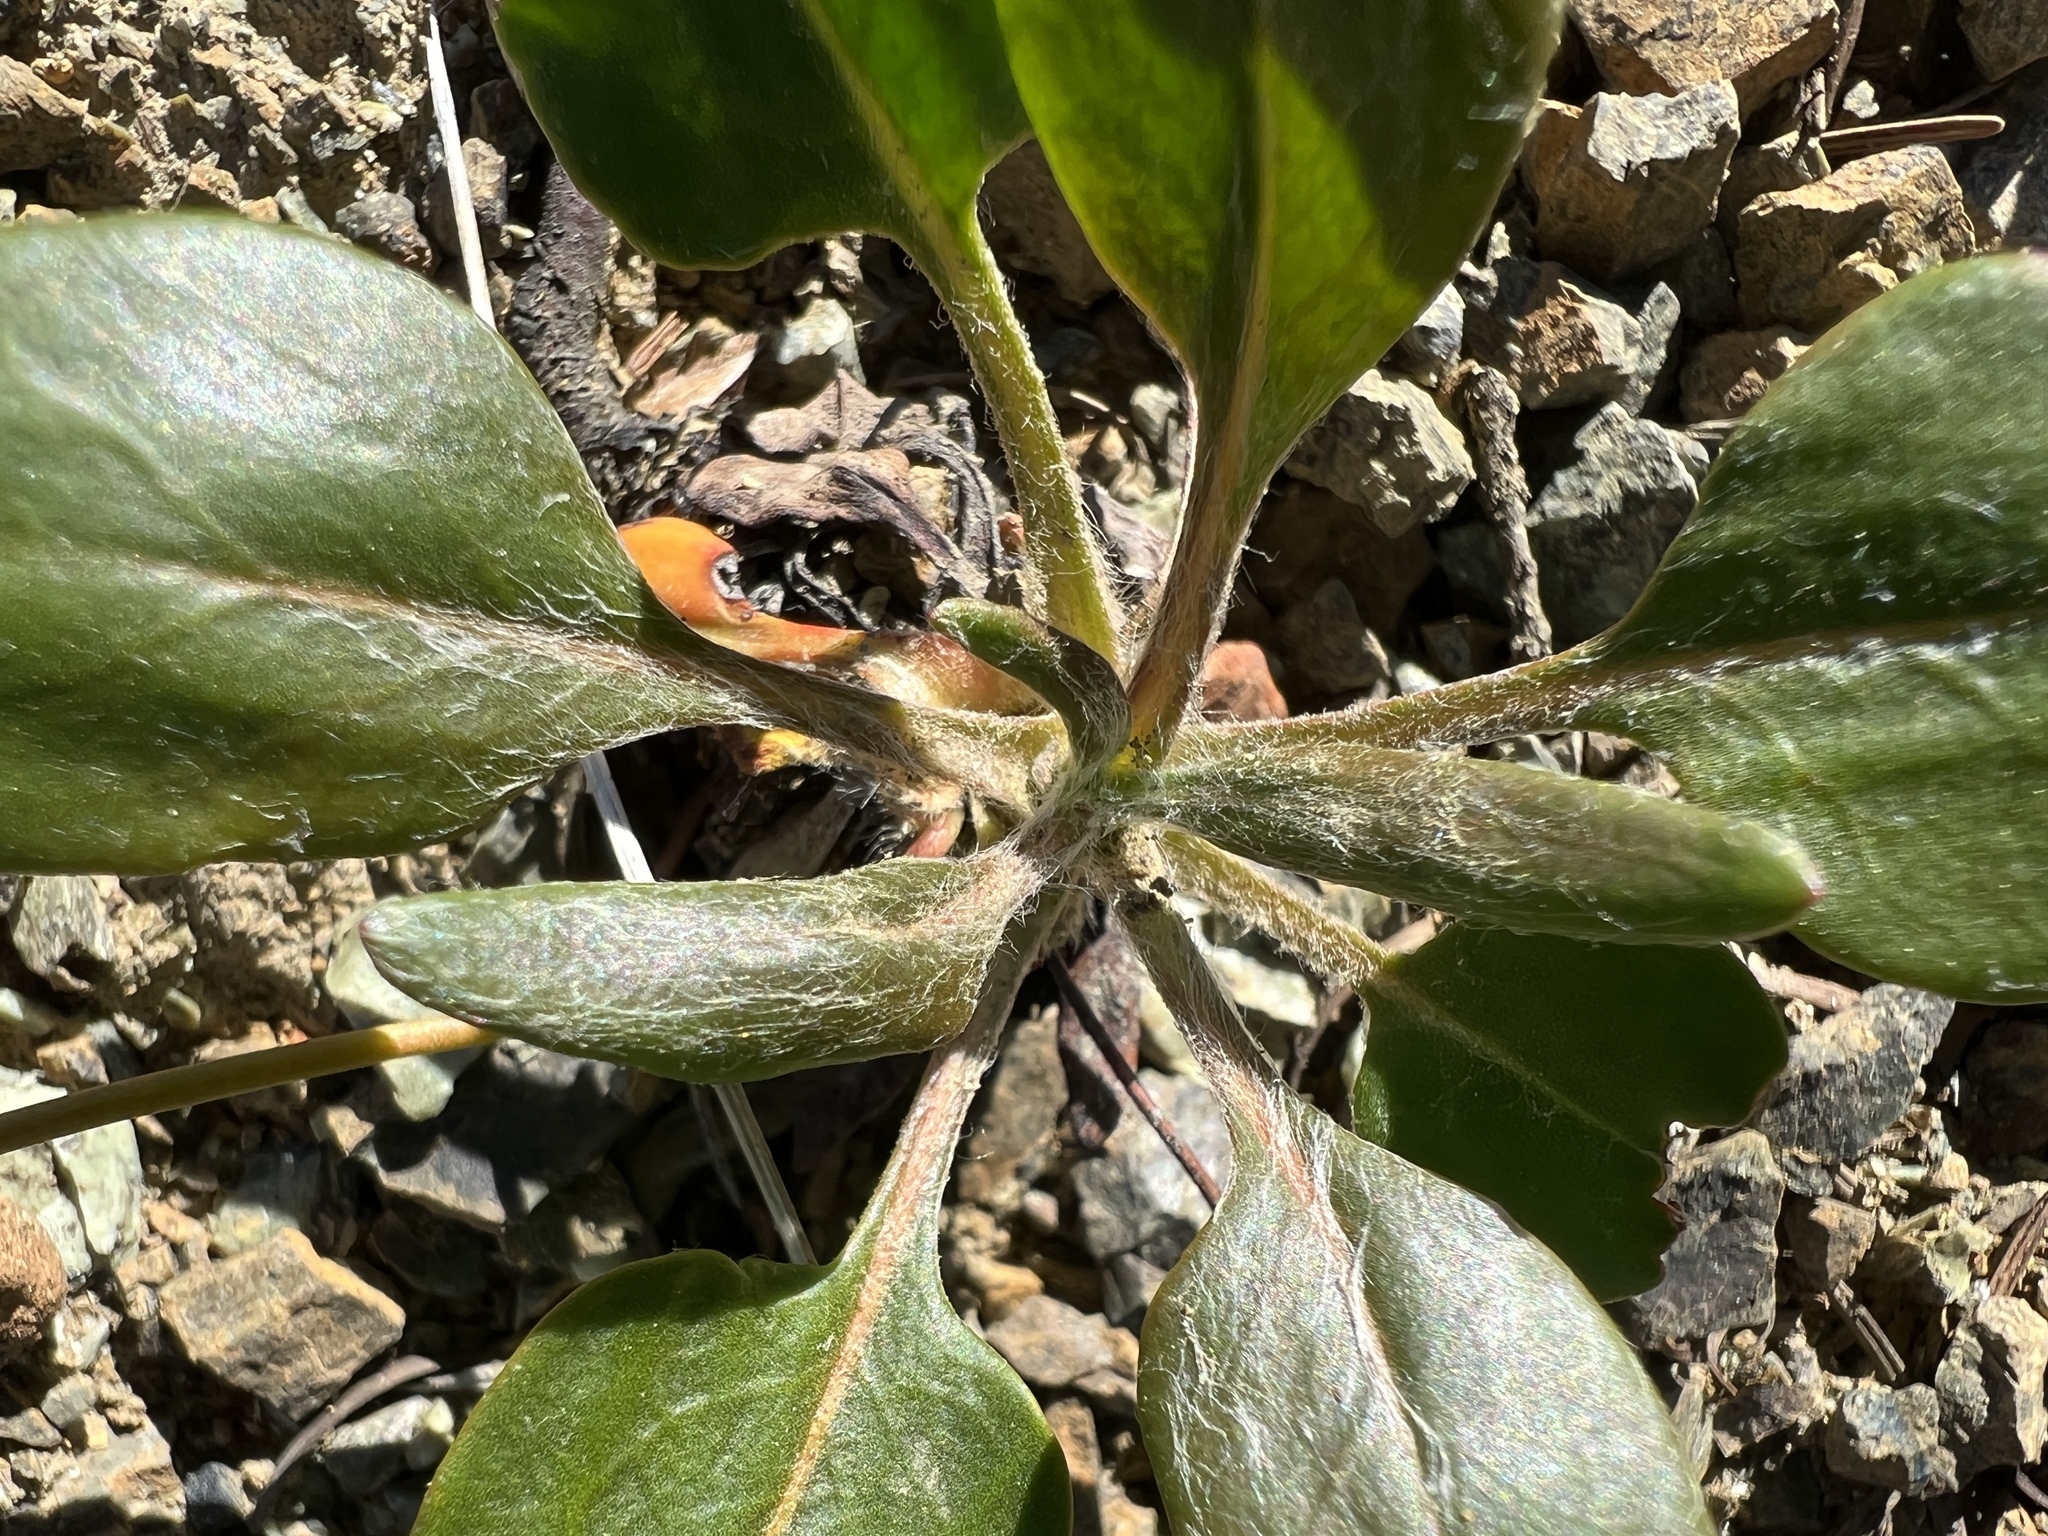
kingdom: Plantae
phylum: Tracheophyta
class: Magnoliopsida
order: Caryophyllales
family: Polygonaceae
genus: Eriogonum
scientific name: Eriogonum pyrolifolium
